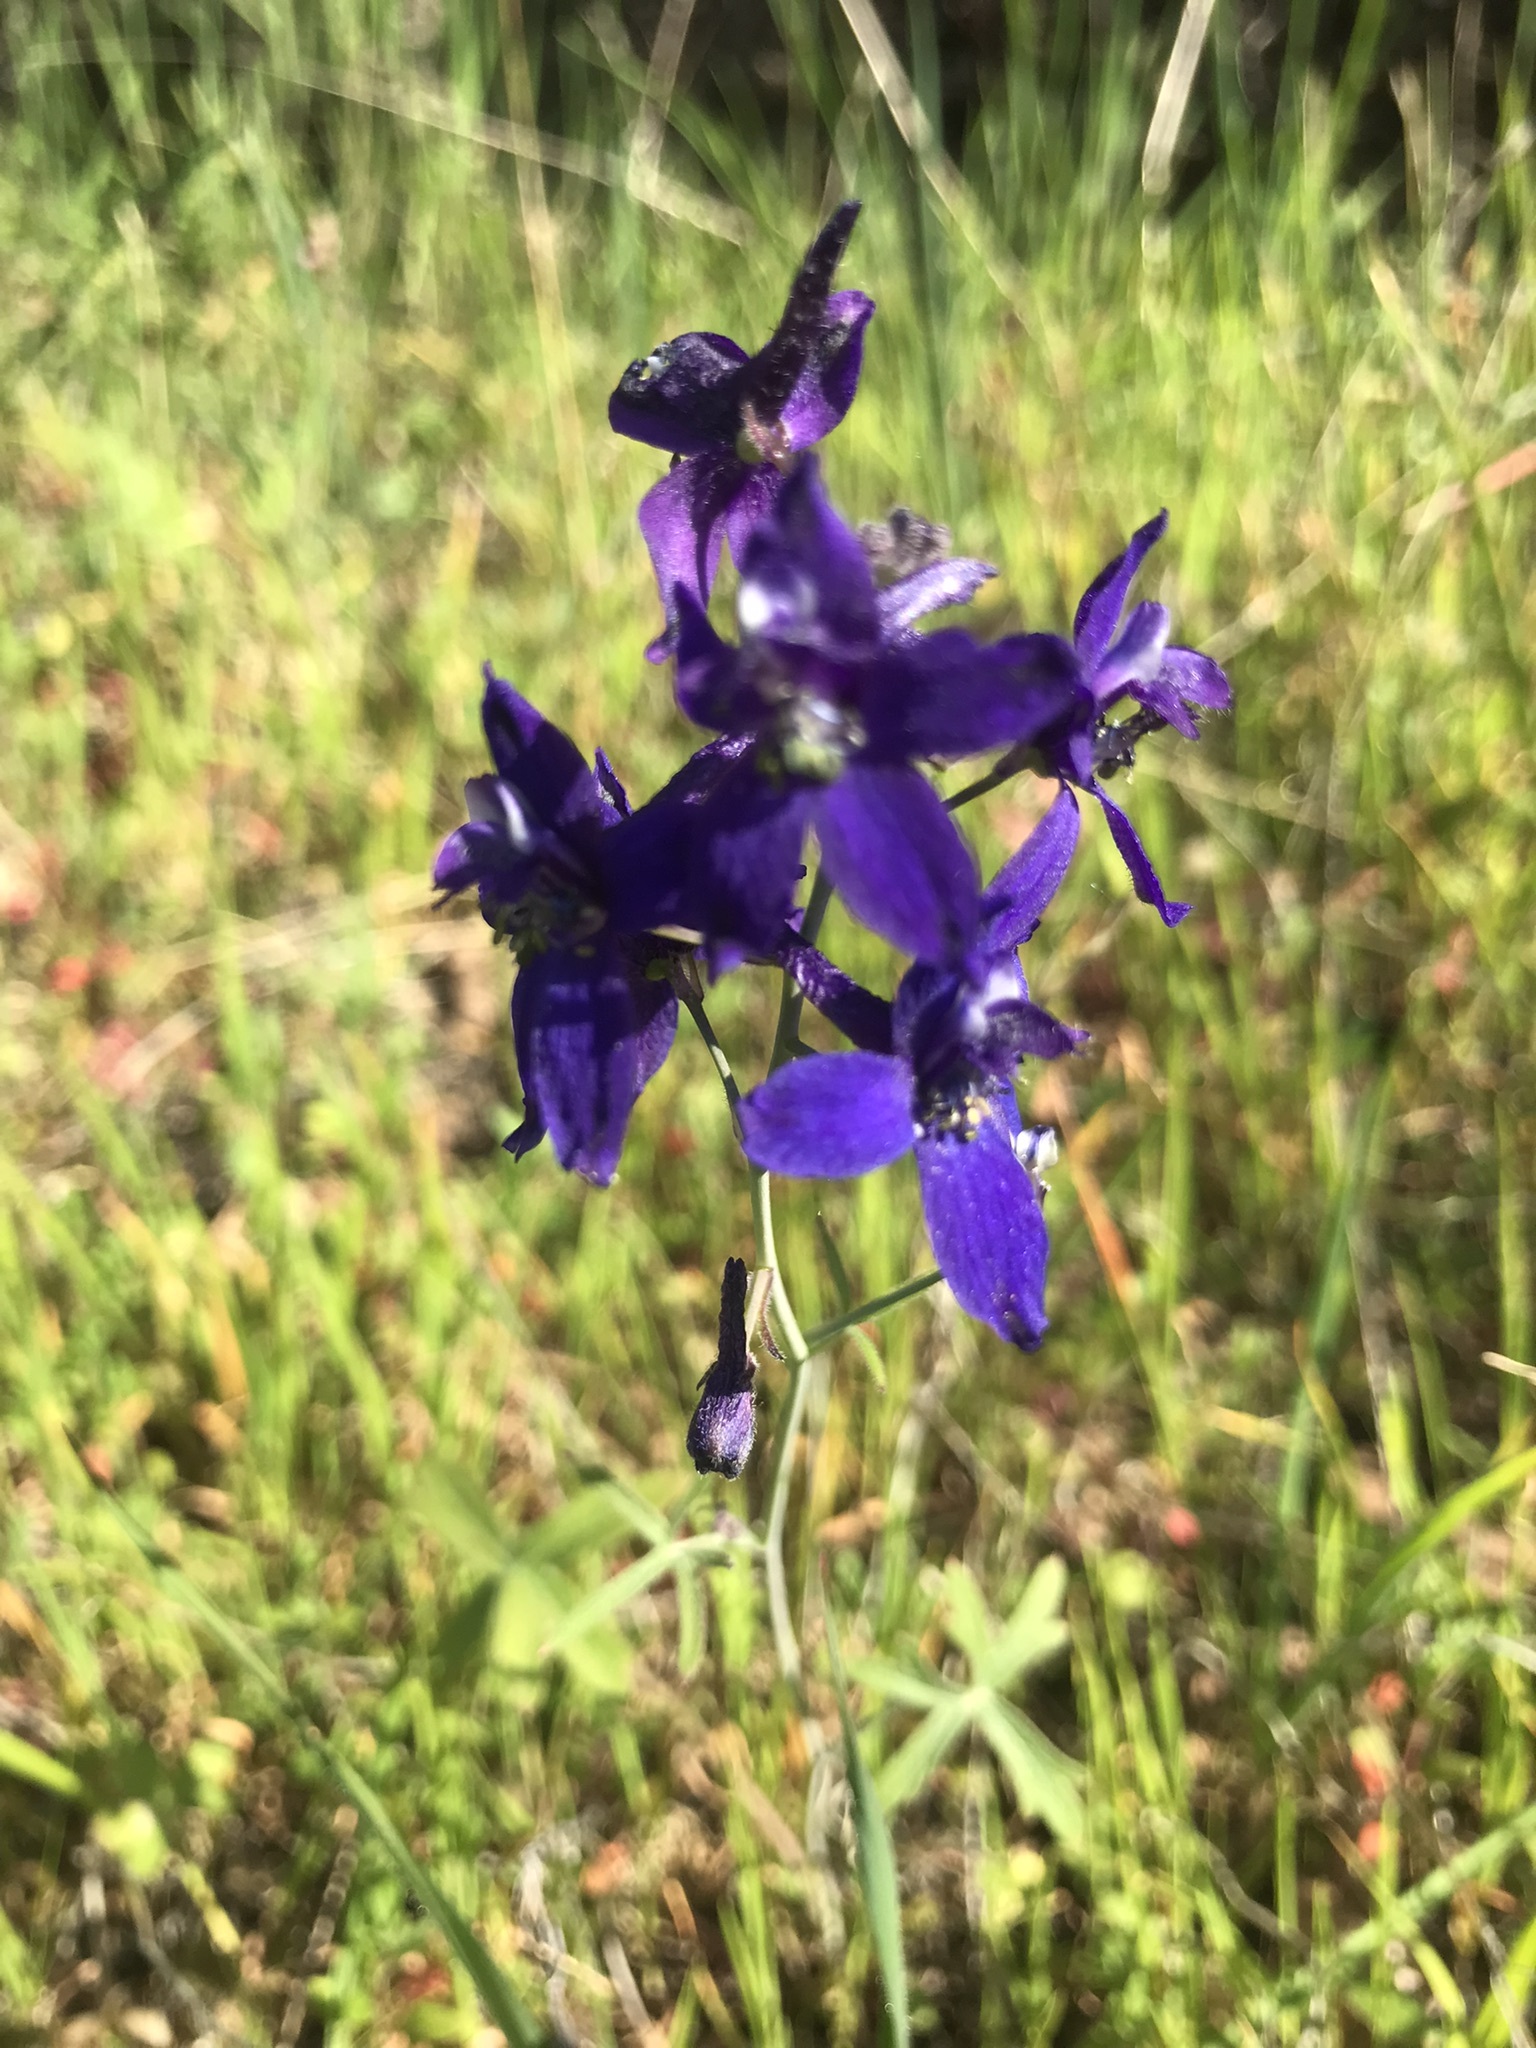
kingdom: Plantae
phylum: Tracheophyta
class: Magnoliopsida
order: Ranunculales
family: Ranunculaceae
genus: Delphinium
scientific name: Delphinium patens
